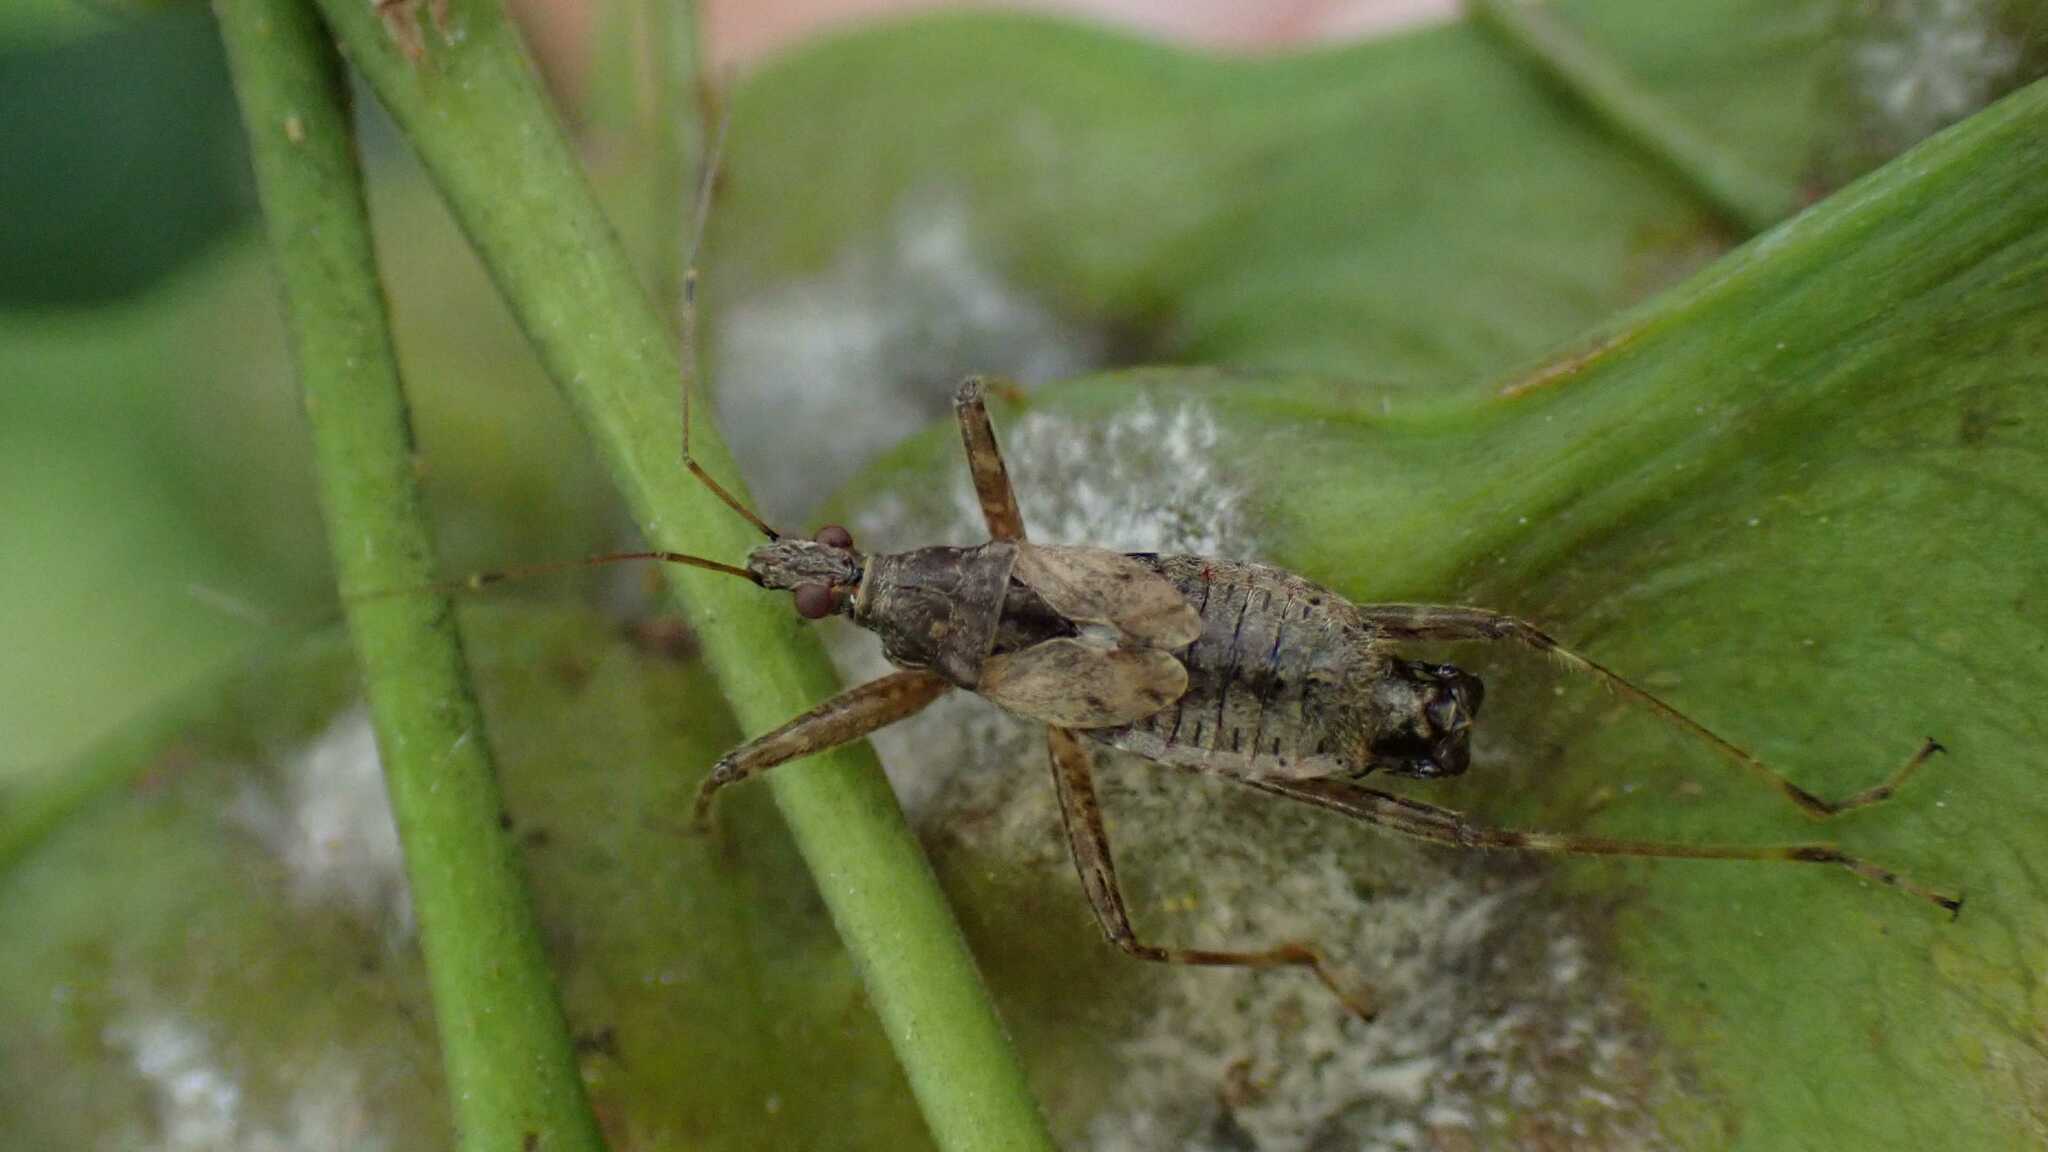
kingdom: Animalia
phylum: Arthropoda
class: Insecta
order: Hemiptera
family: Nabidae
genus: Himacerus
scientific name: Himacerus apterus
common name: Tree damsel bug
